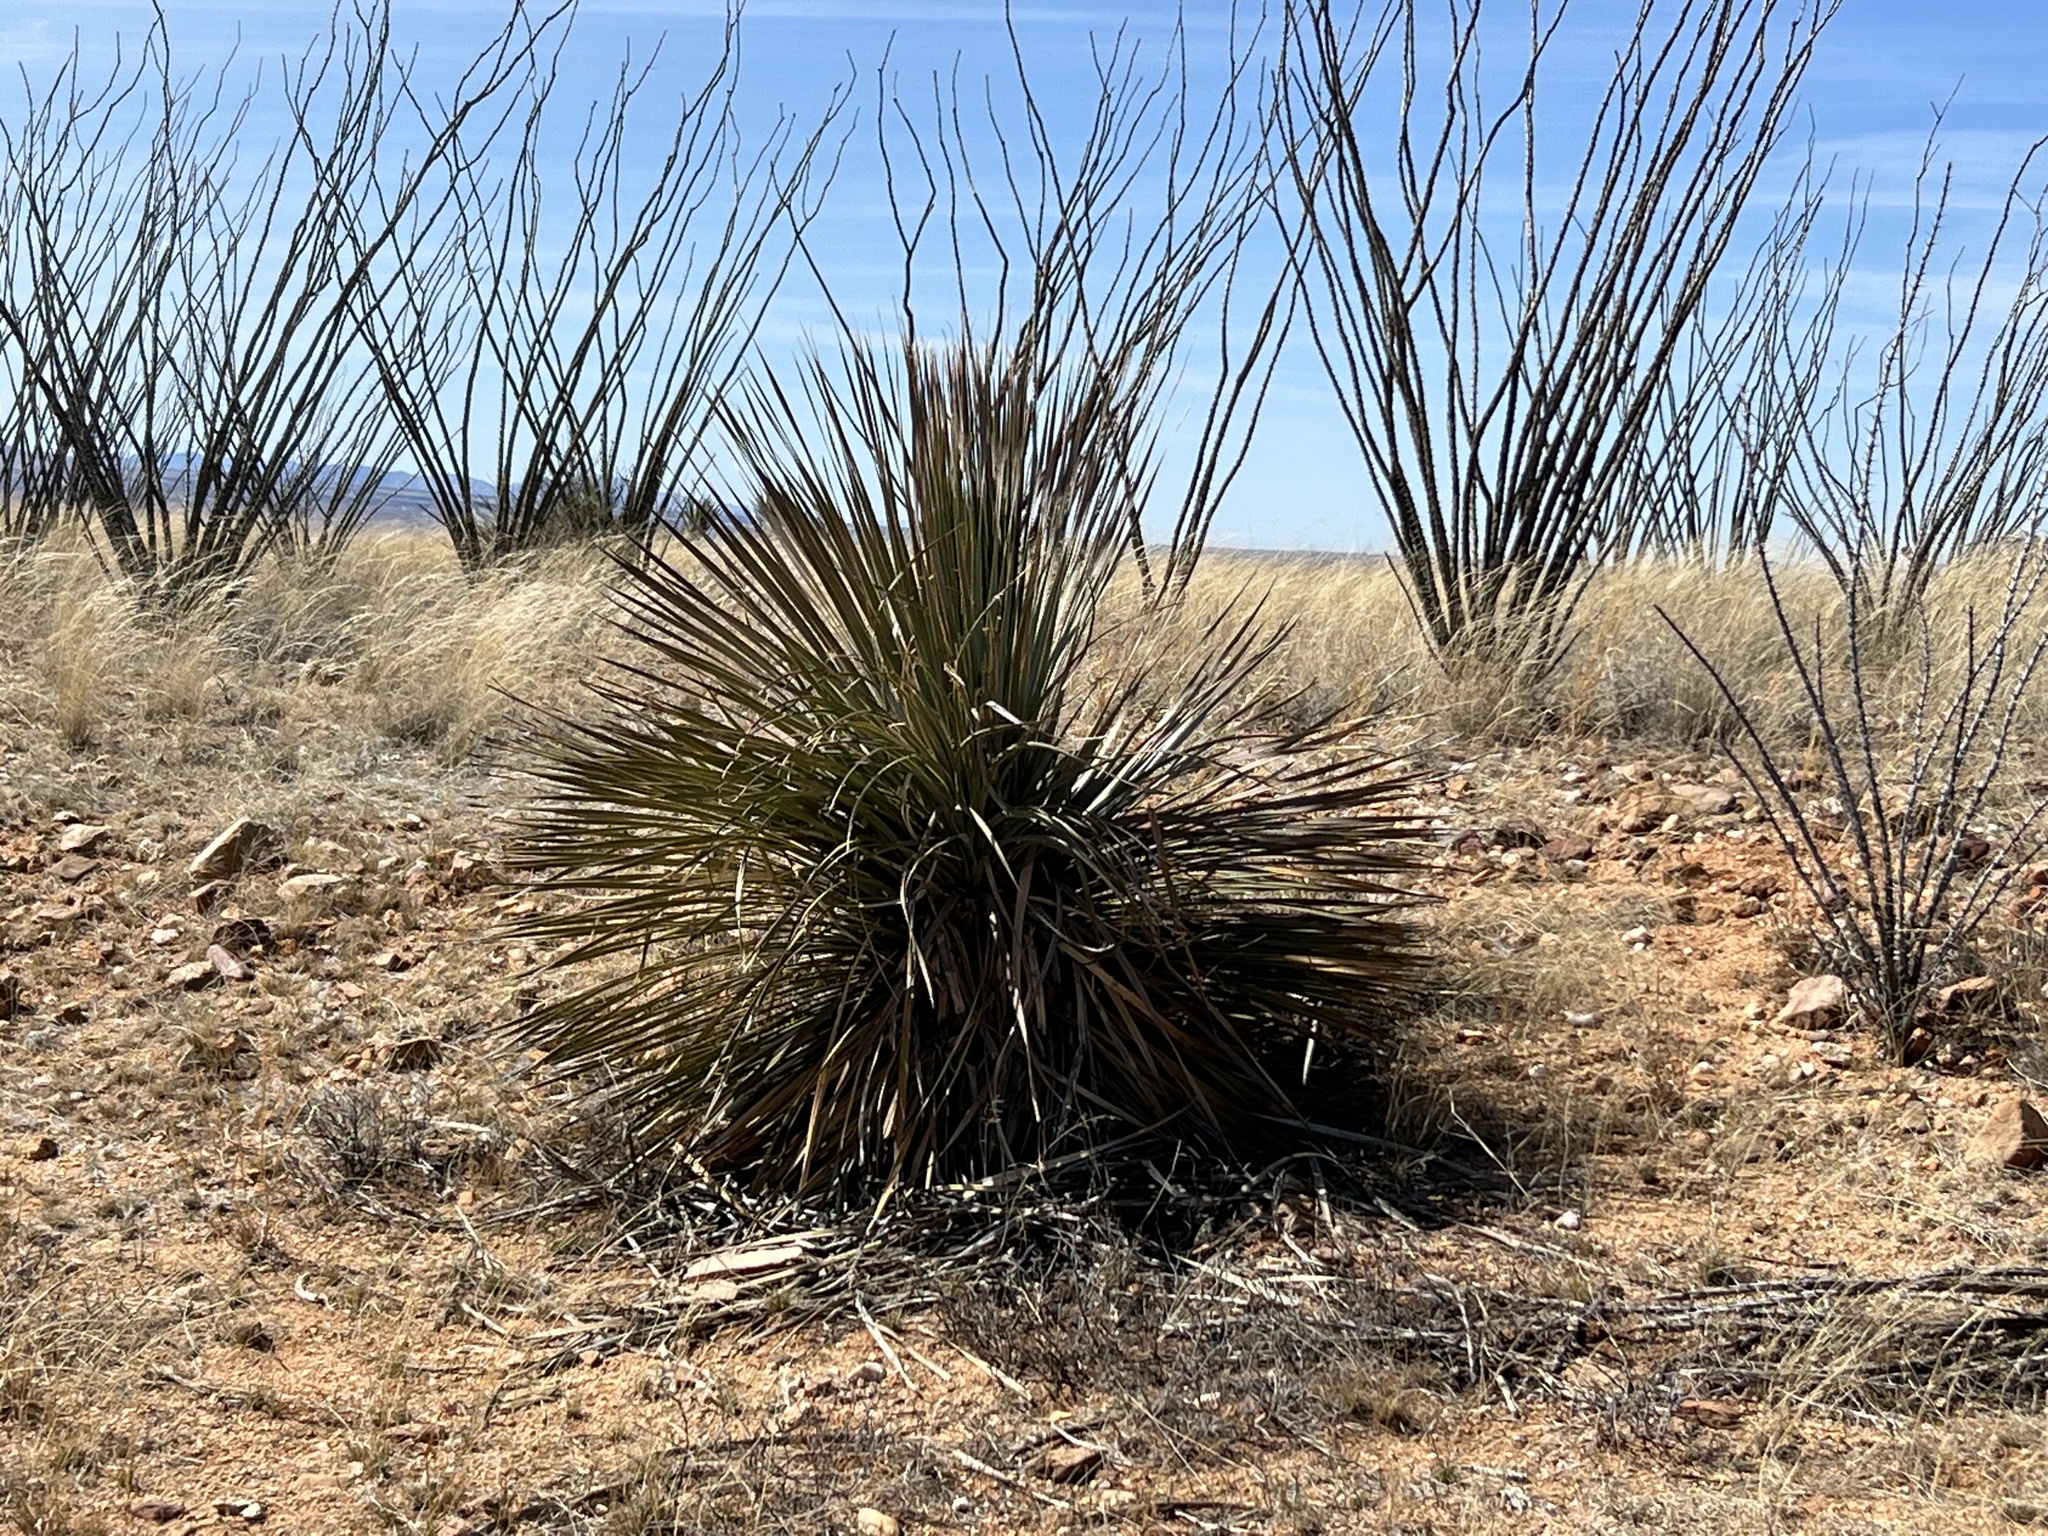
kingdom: Plantae
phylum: Tracheophyta
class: Liliopsida
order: Asparagales
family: Asparagaceae
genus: Dasylirion
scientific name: Dasylirion wheeleri
